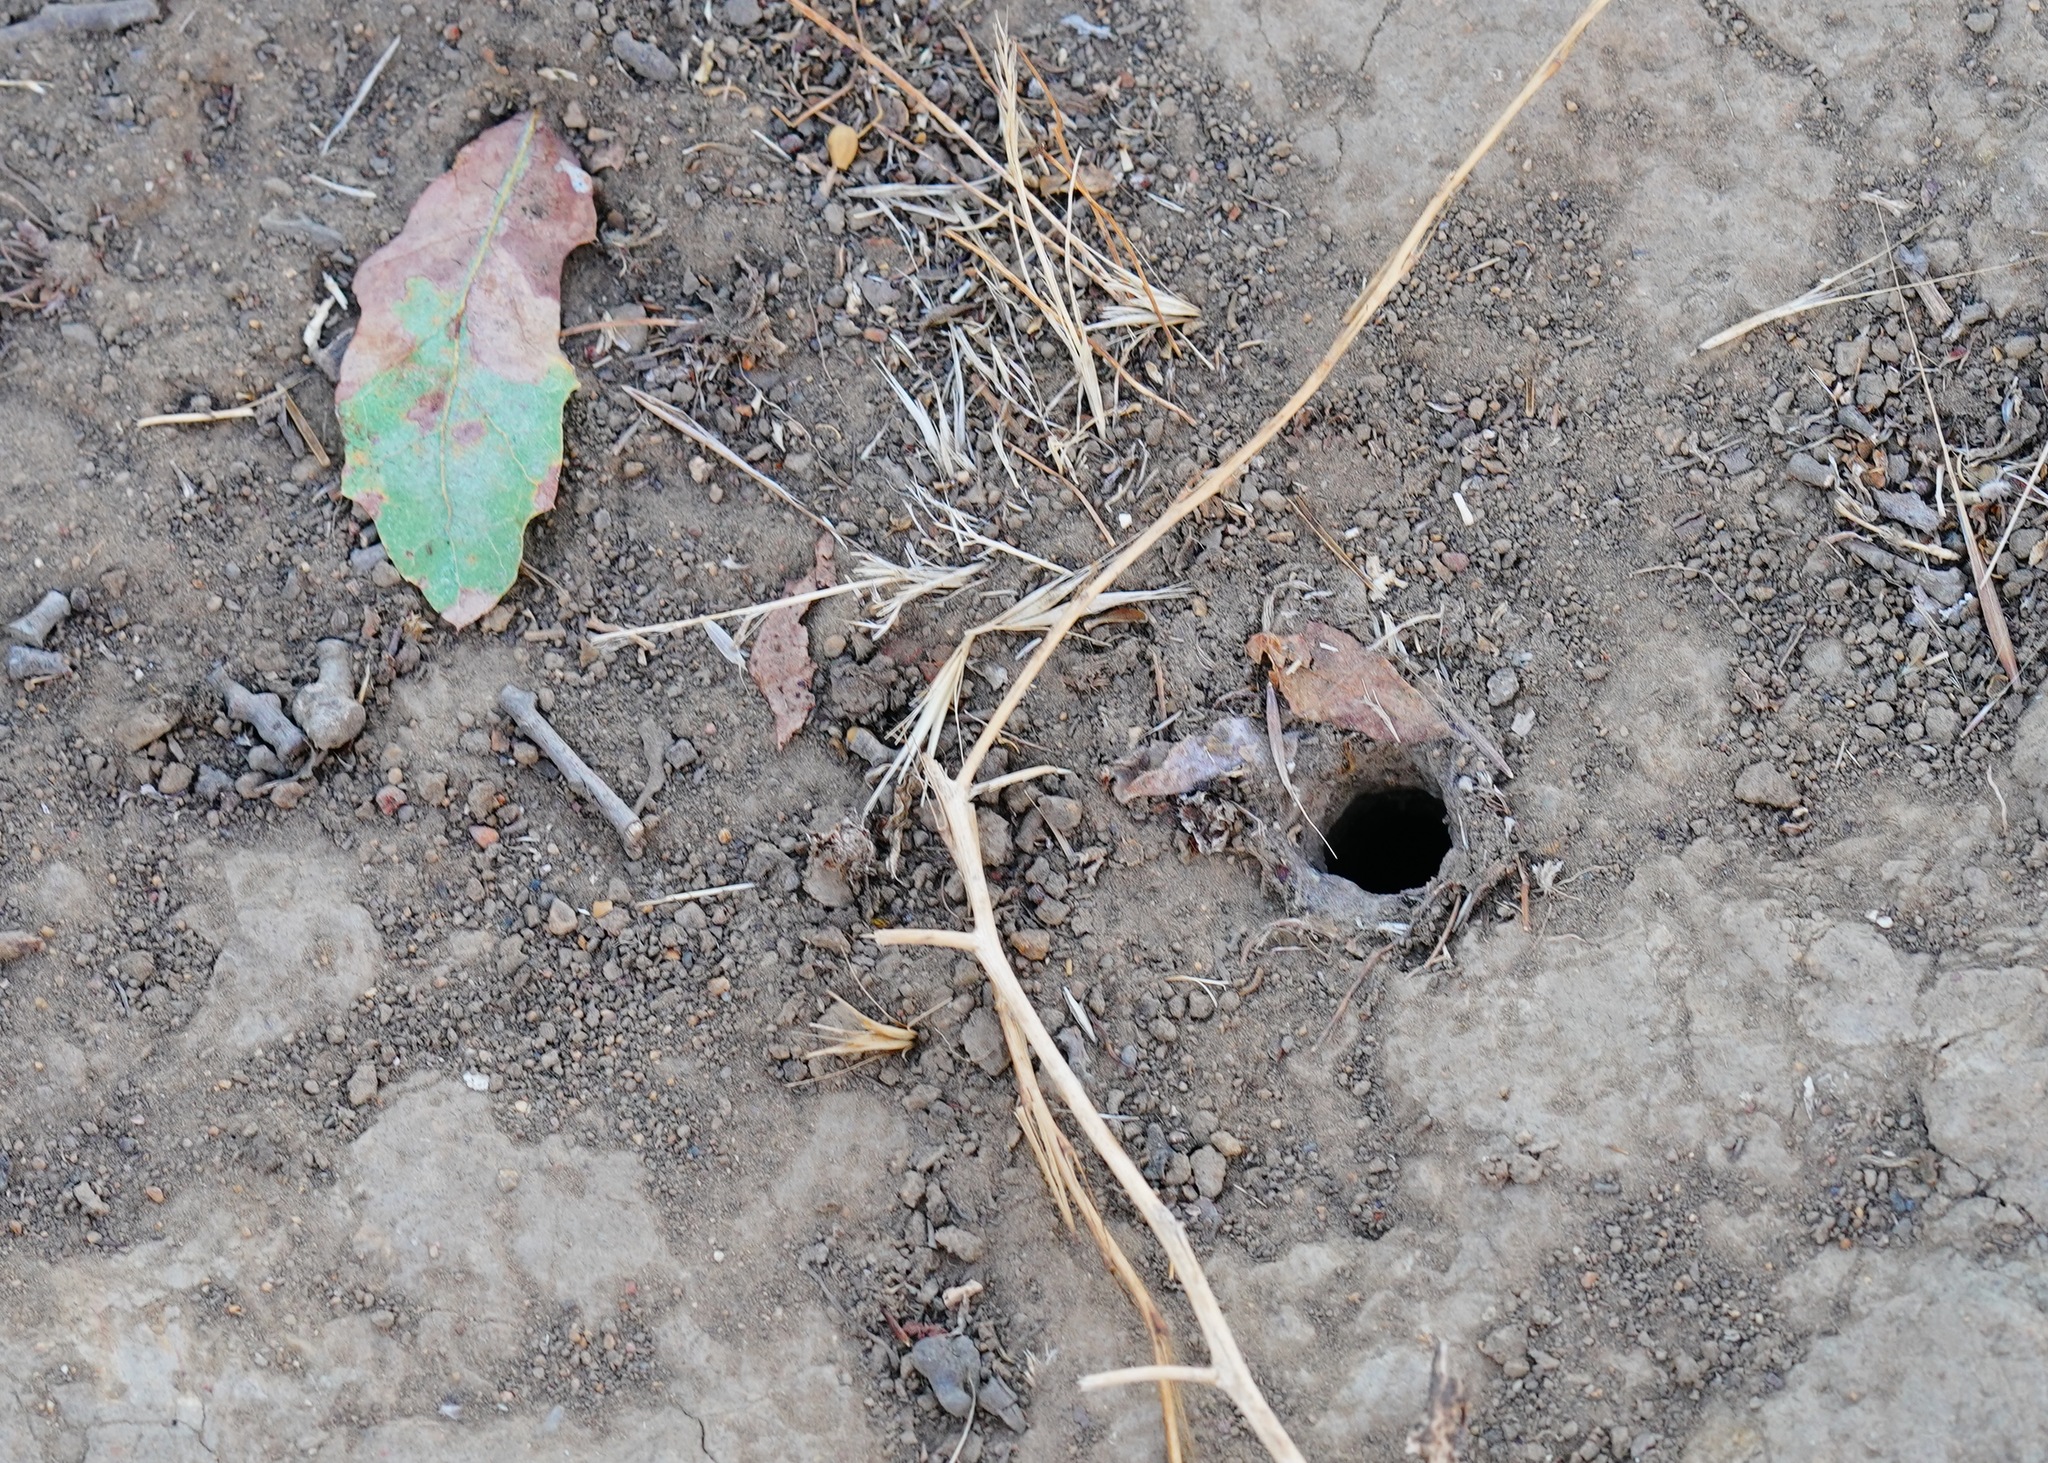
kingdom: Animalia
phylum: Arthropoda
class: Arachnida
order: Araneae
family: Nemesiidae
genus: Calisoga
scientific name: Calisoga longitarsis
